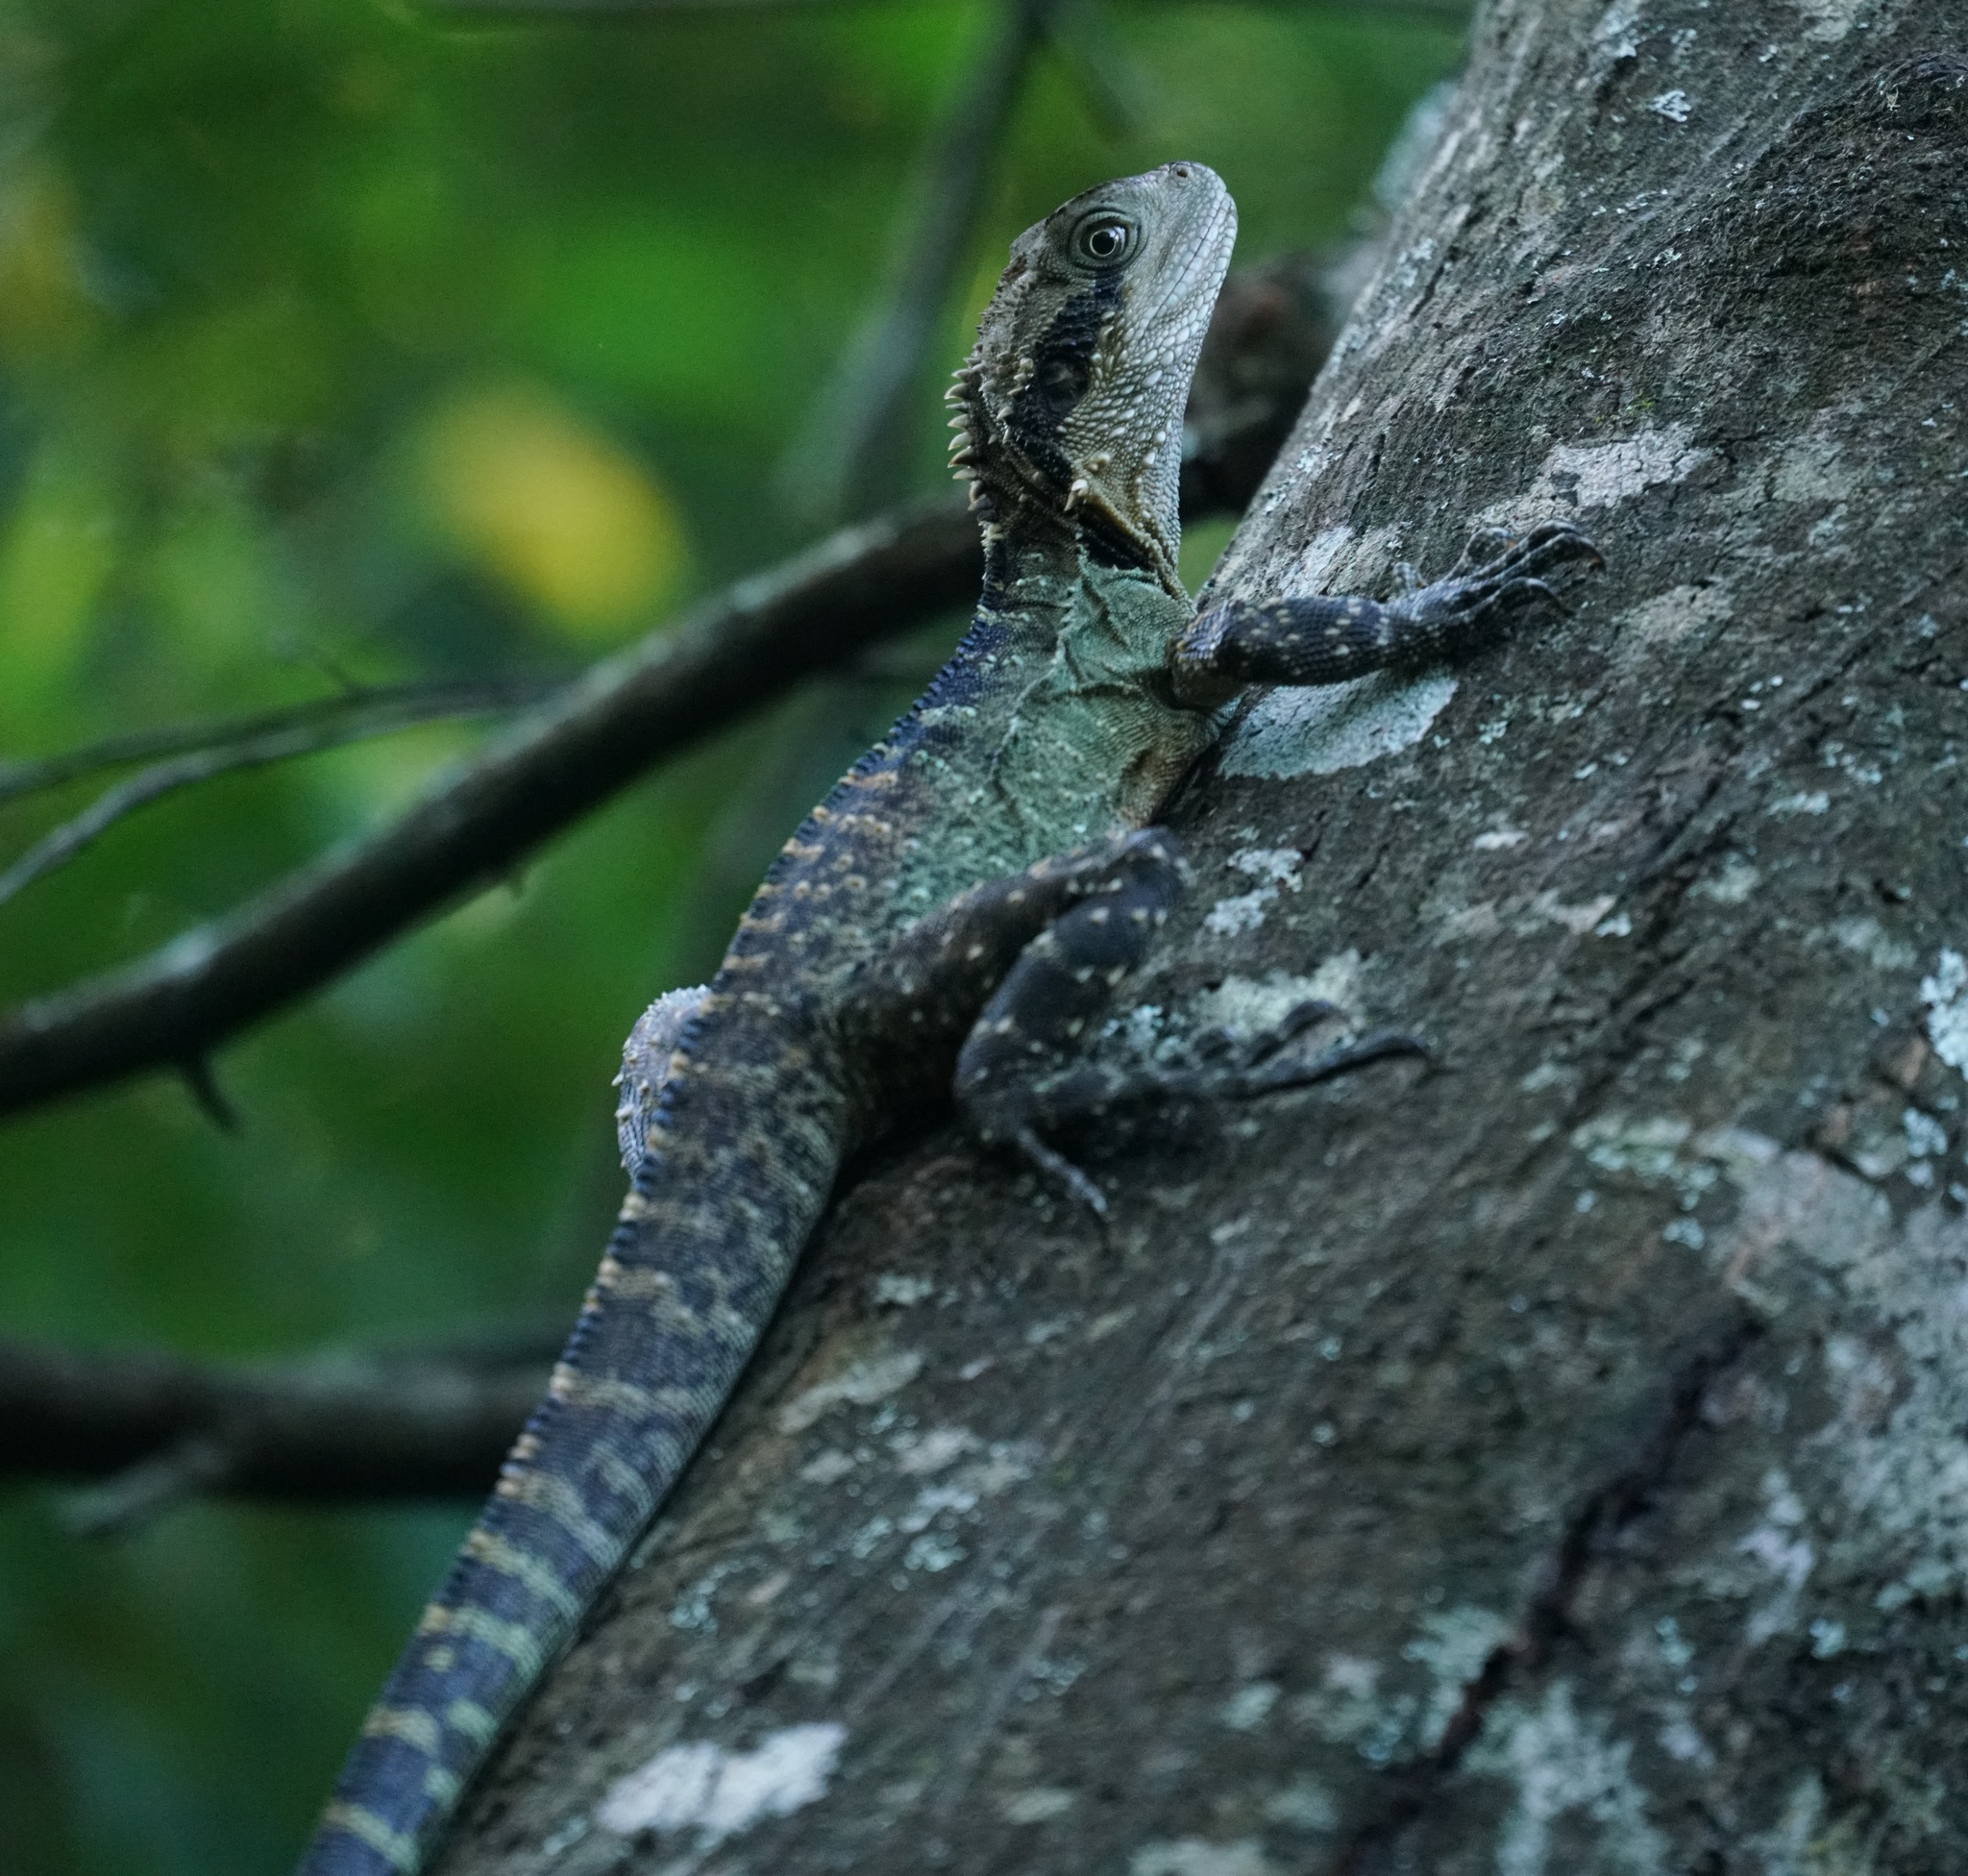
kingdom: Animalia
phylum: Chordata
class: Squamata
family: Agamidae
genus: Intellagama
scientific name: Intellagama lesueurii
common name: Eastern water dragon
